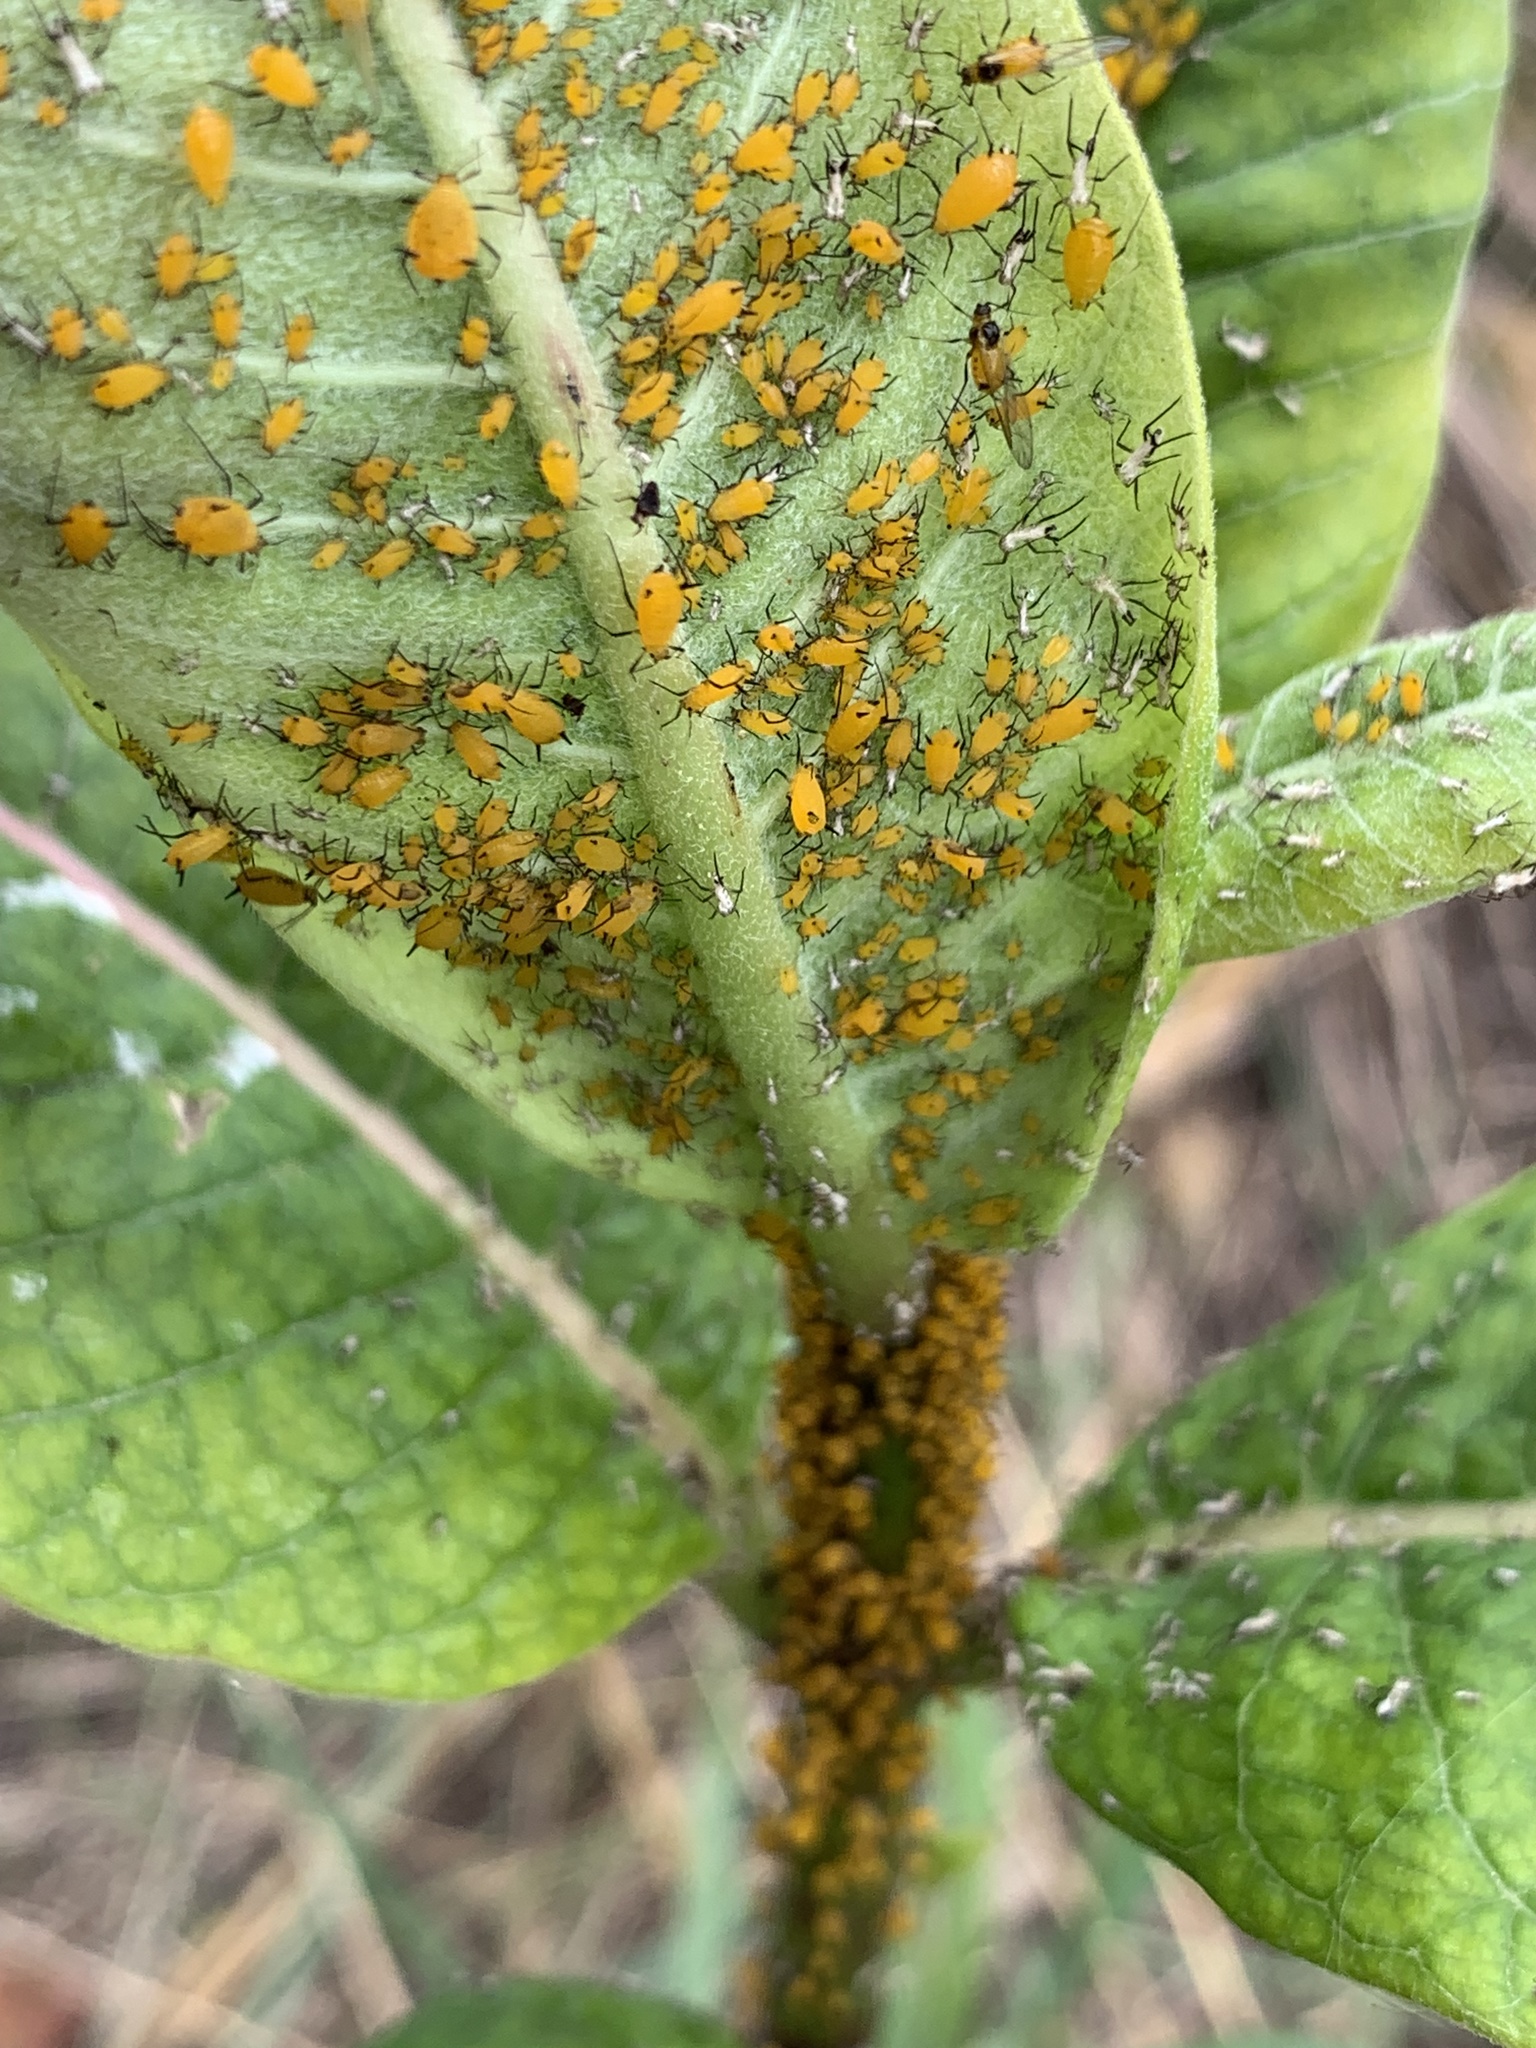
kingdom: Animalia
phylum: Arthropoda
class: Insecta
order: Hemiptera
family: Aphididae
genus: Aphis
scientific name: Aphis nerii
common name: Oleander aphid
